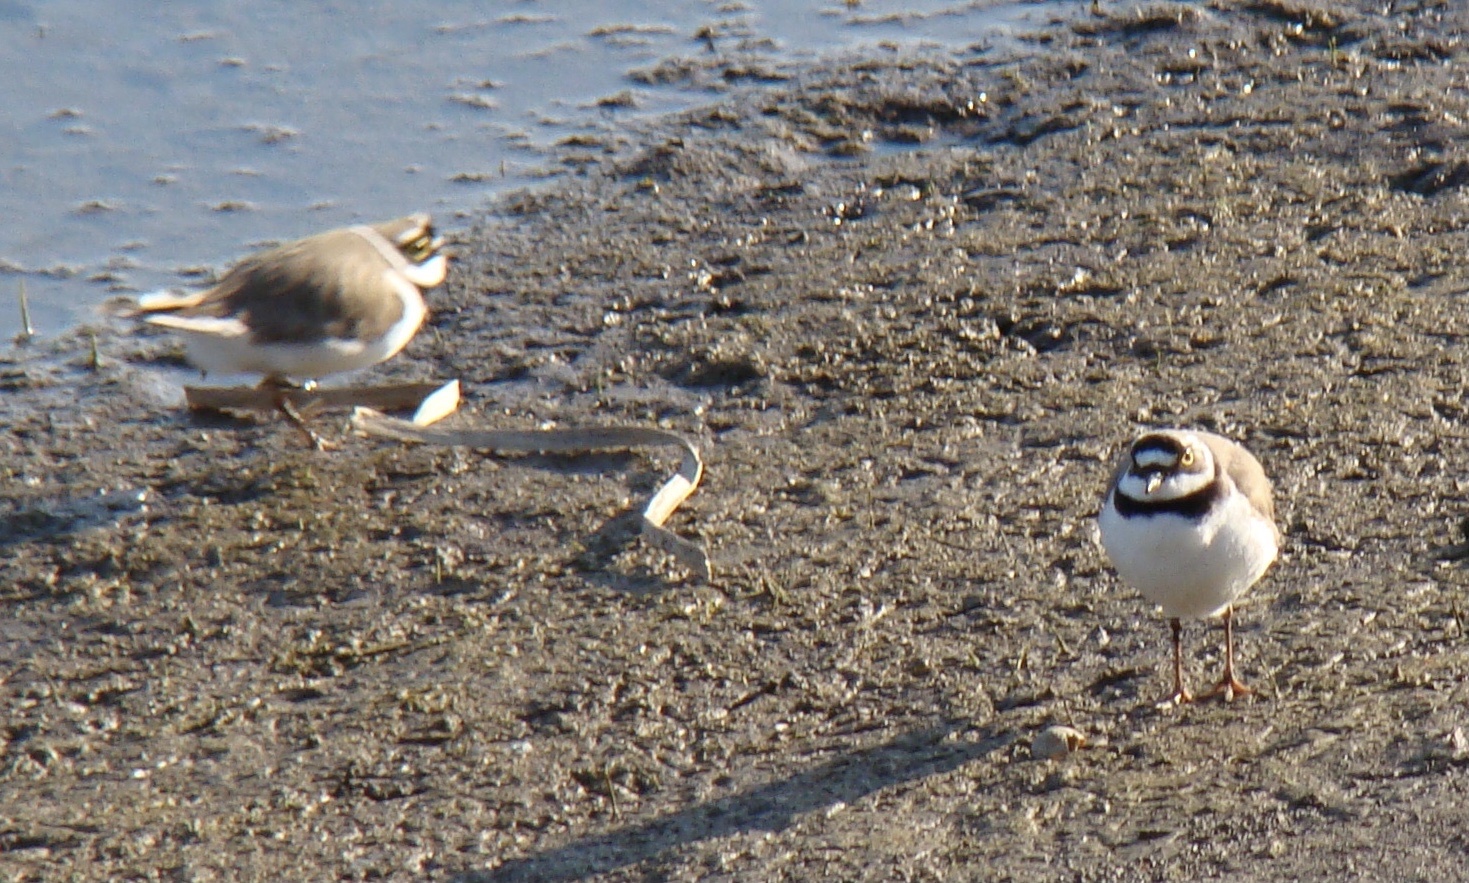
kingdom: Animalia
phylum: Chordata
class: Aves
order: Charadriiformes
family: Charadriidae
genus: Charadrius
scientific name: Charadrius dubius
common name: Little ringed plover
